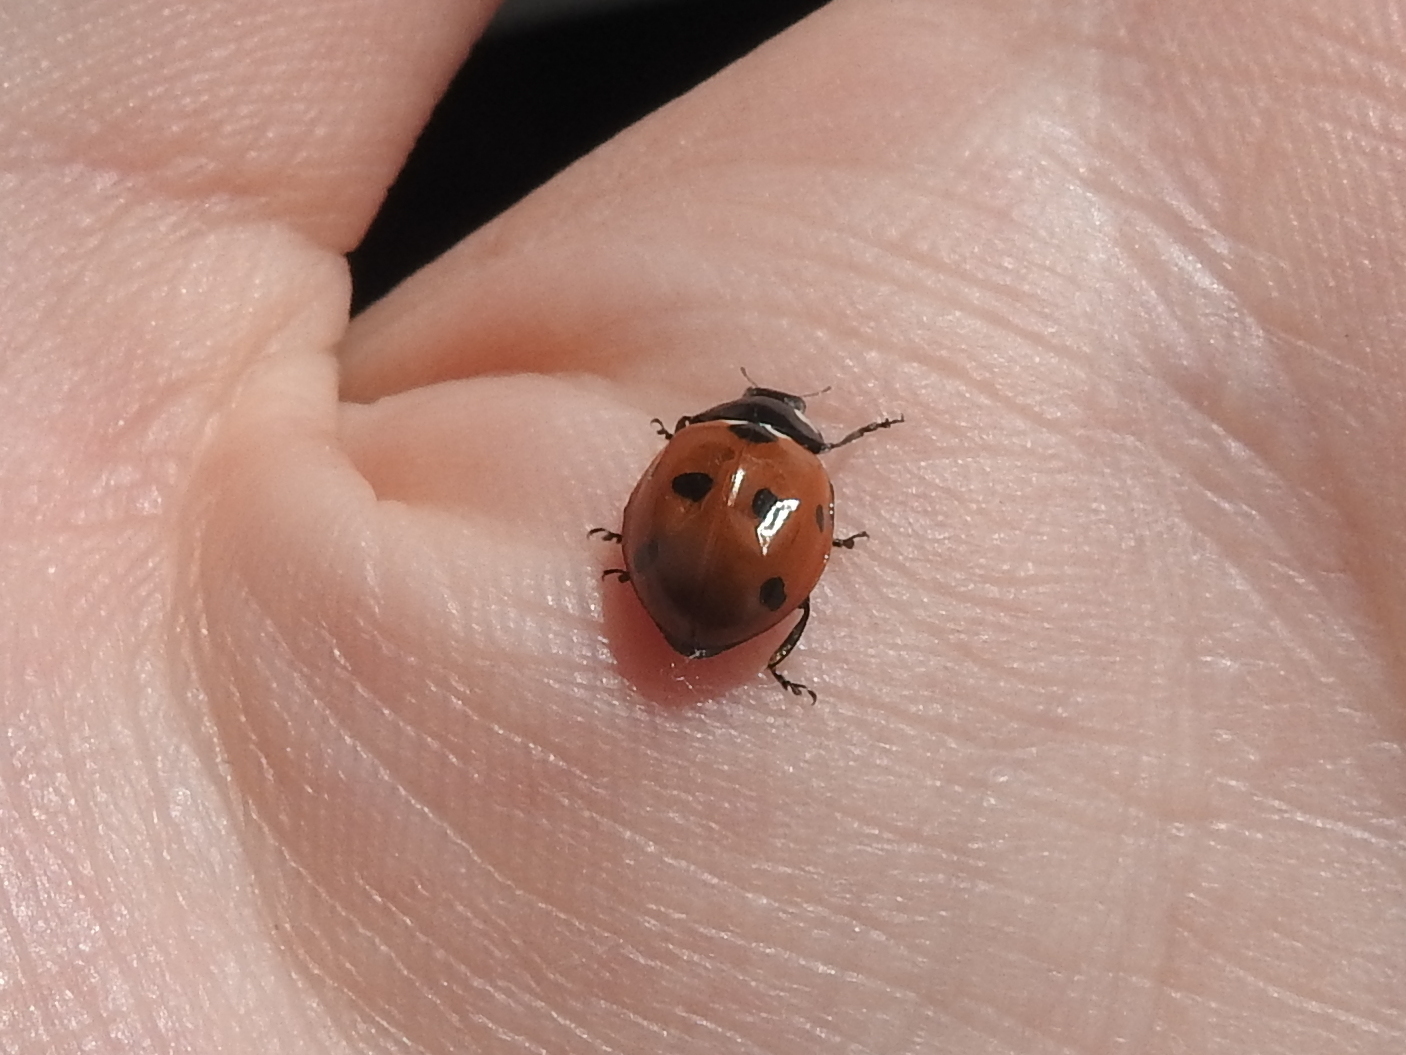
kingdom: Animalia
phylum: Arthropoda
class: Insecta
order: Coleoptera
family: Coccinellidae
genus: Coccinella
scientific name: Coccinella septempunctata
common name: Sevenspotted lady beetle
